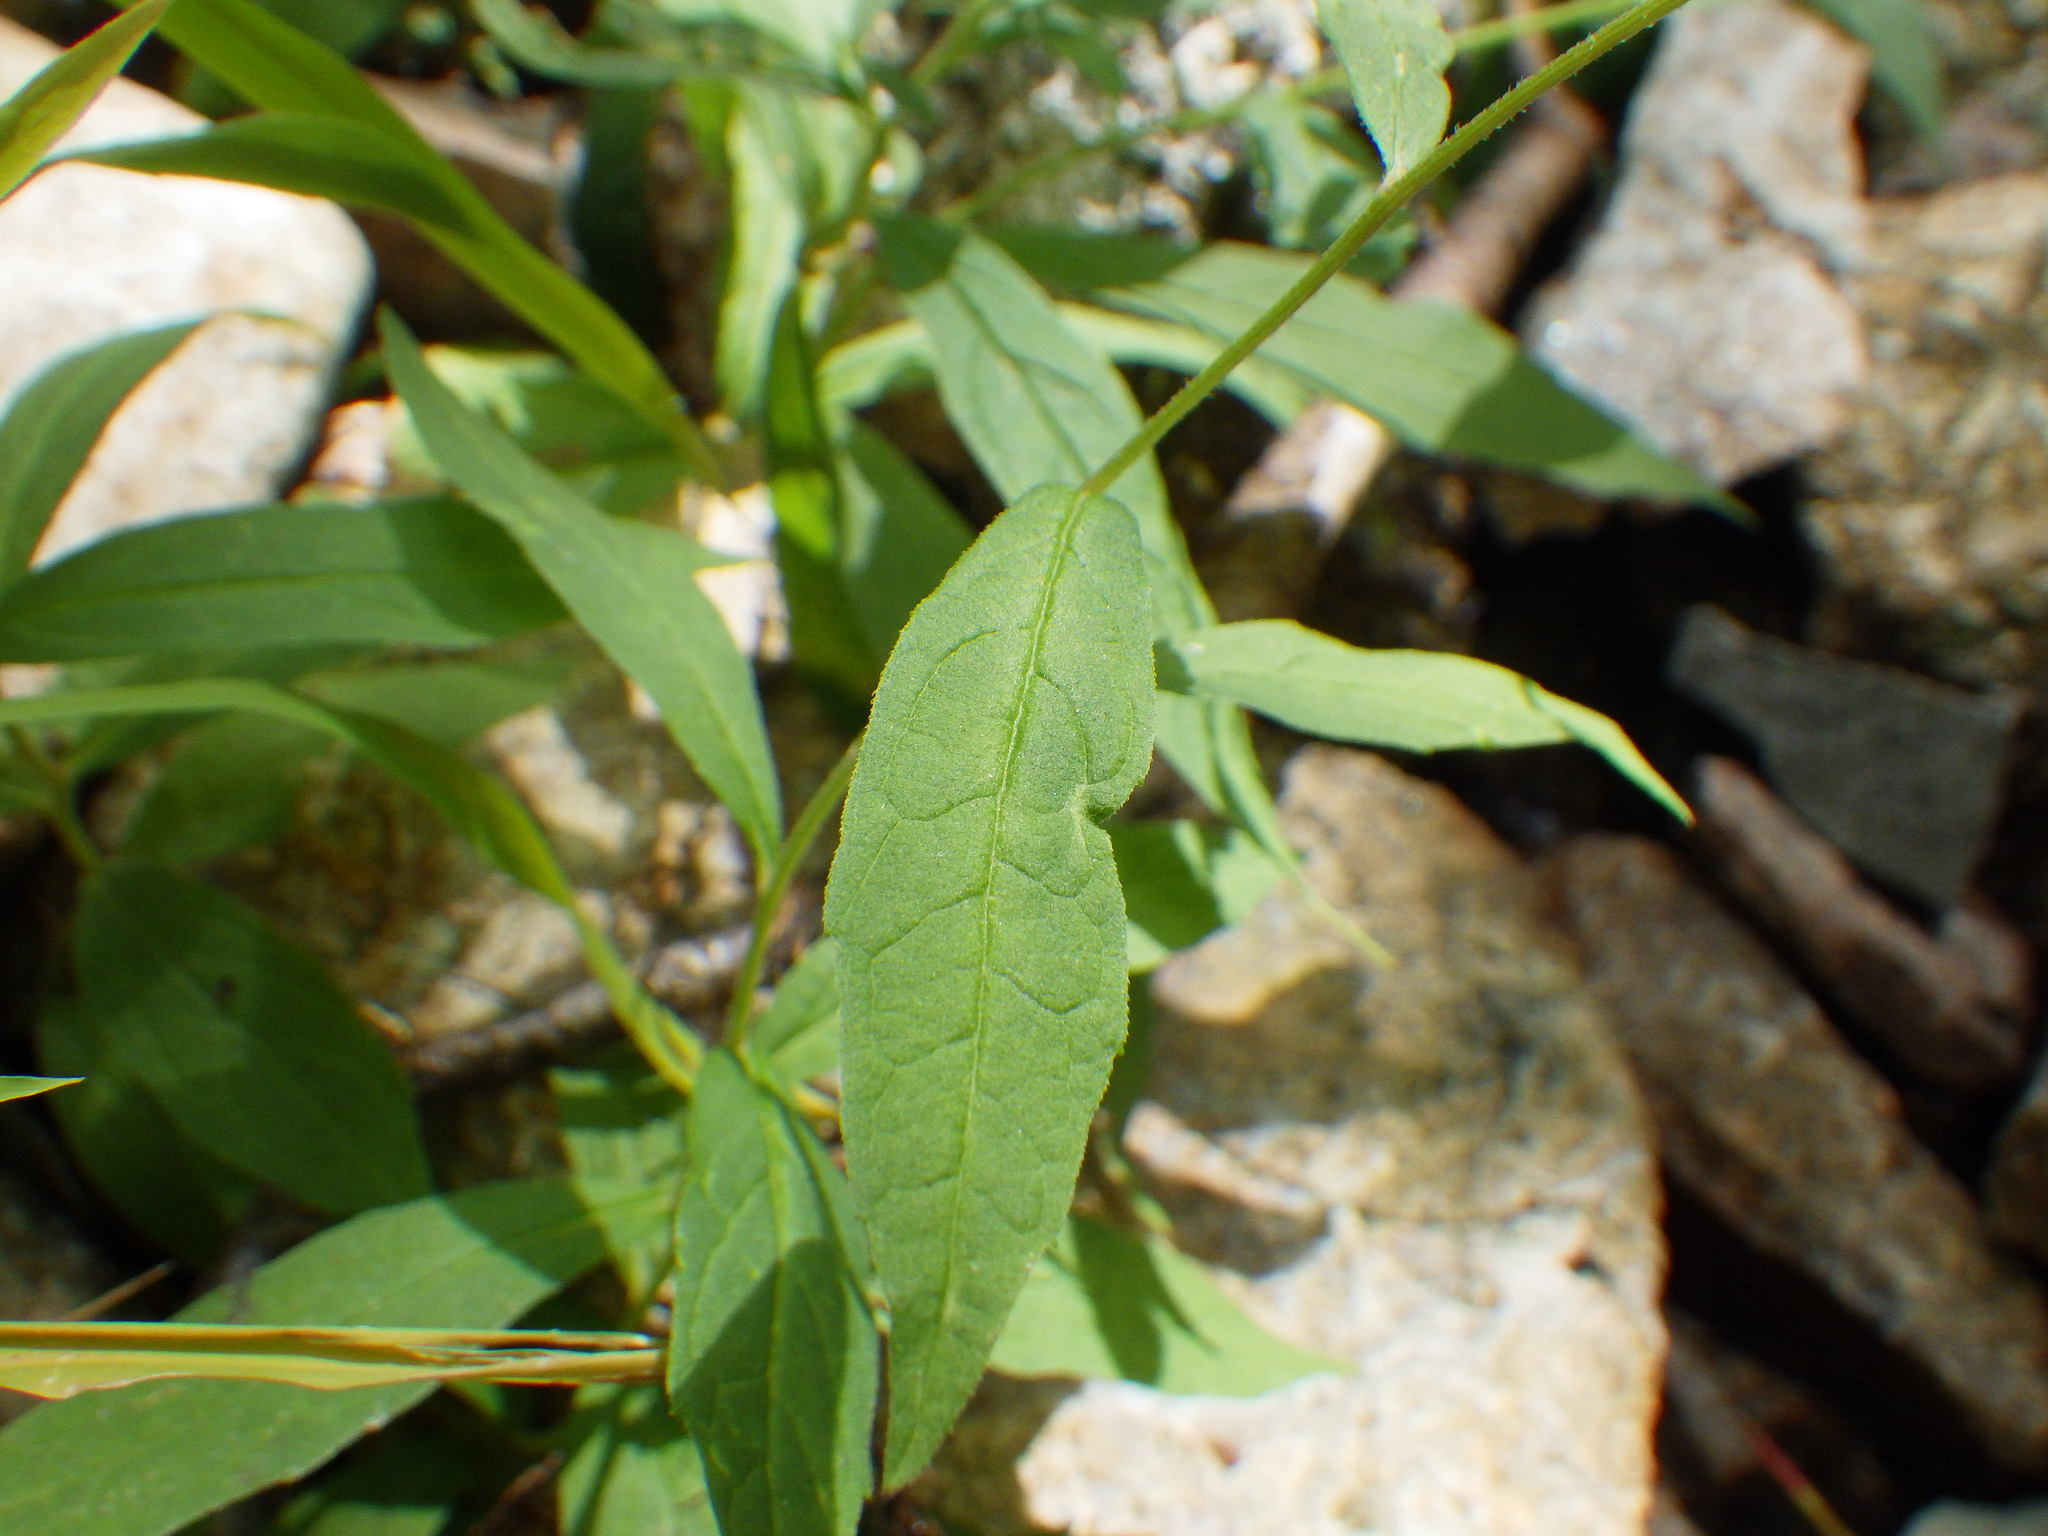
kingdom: Plantae
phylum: Tracheophyta
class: Magnoliopsida
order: Asterales
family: Asteraceae
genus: Symphyotrichum
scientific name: Symphyotrichum puniceum
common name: Bog aster
